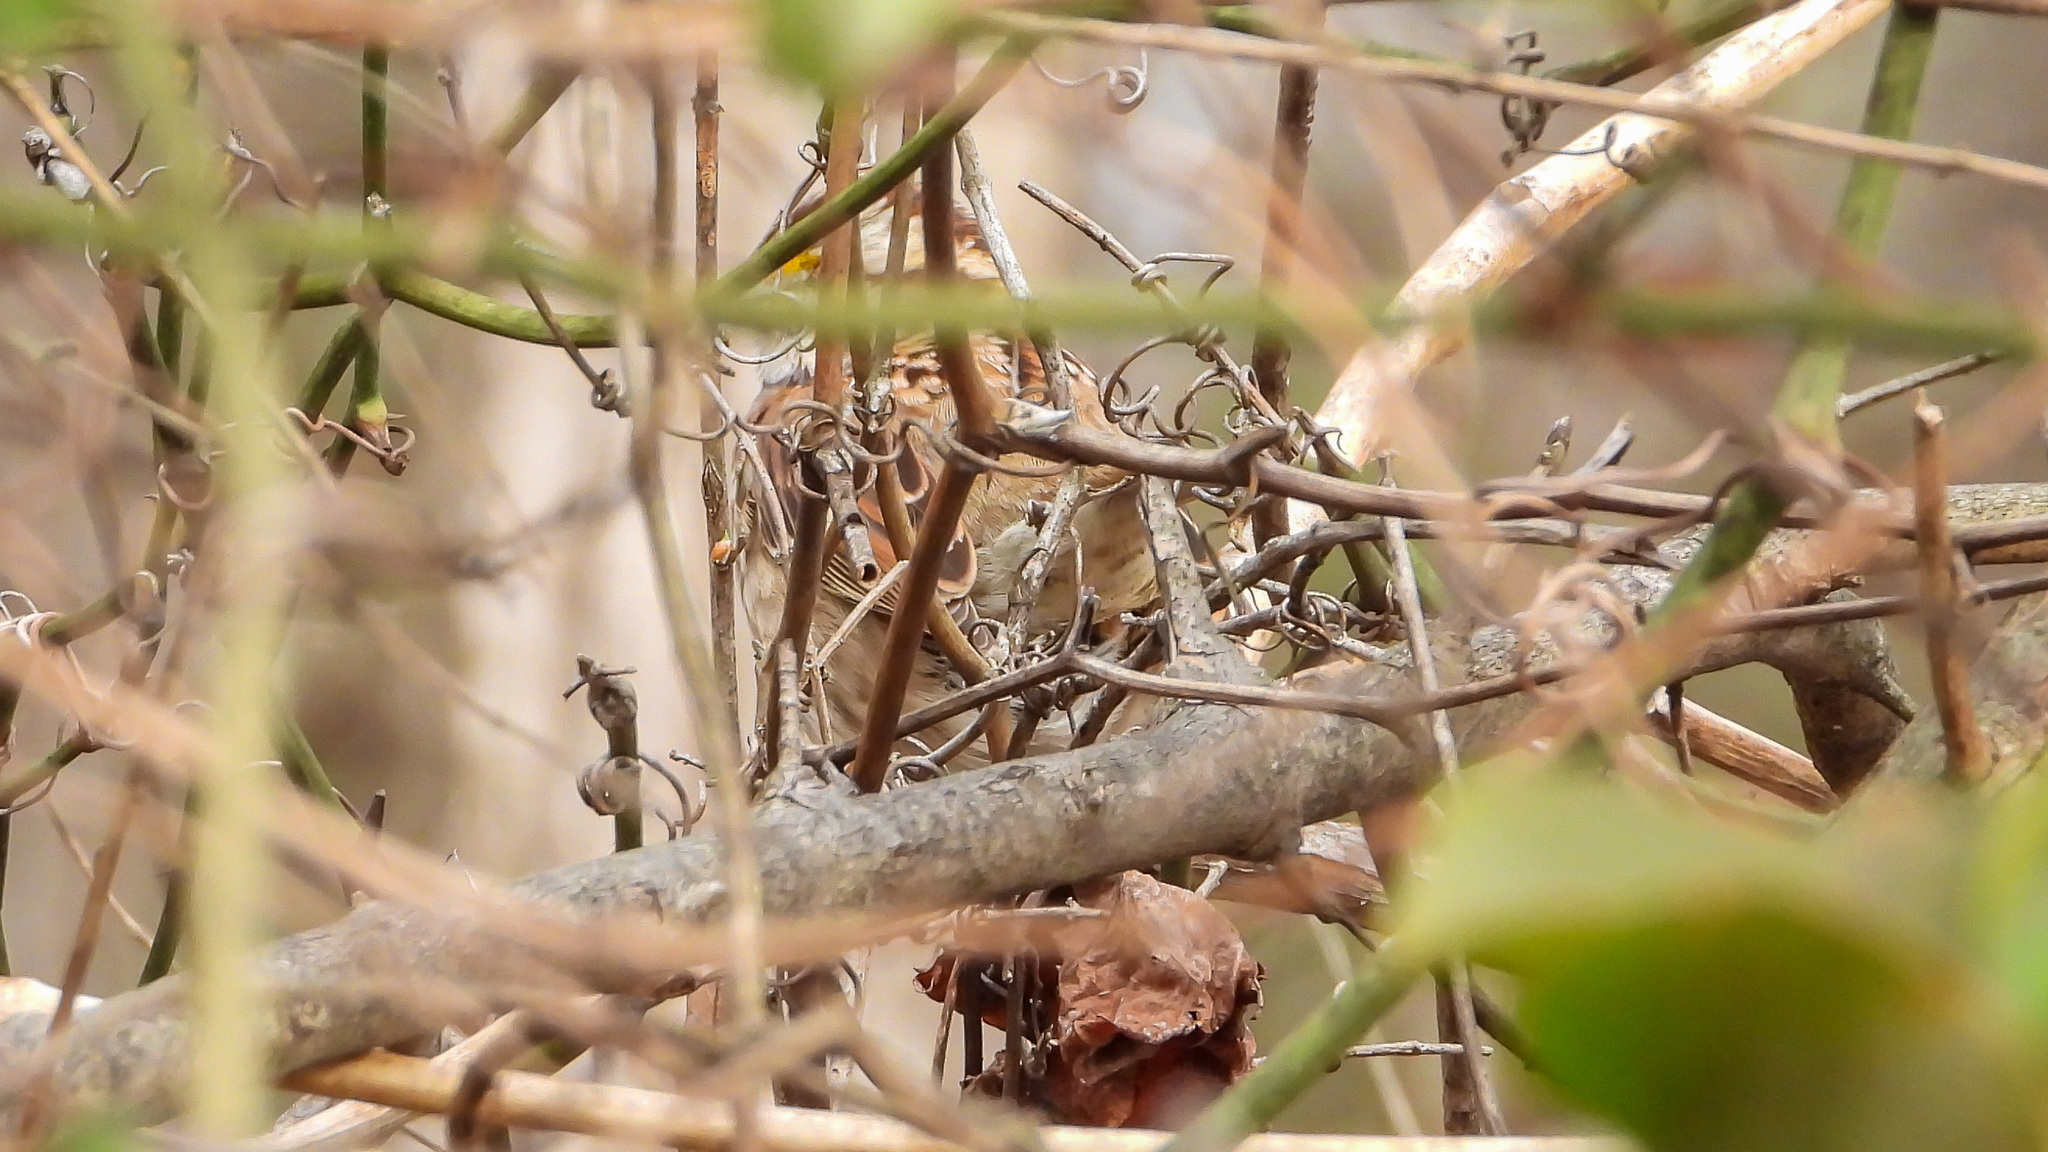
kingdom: Animalia
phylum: Chordata
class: Aves
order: Passeriformes
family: Passerellidae
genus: Zonotrichia
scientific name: Zonotrichia albicollis
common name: White-throated sparrow
